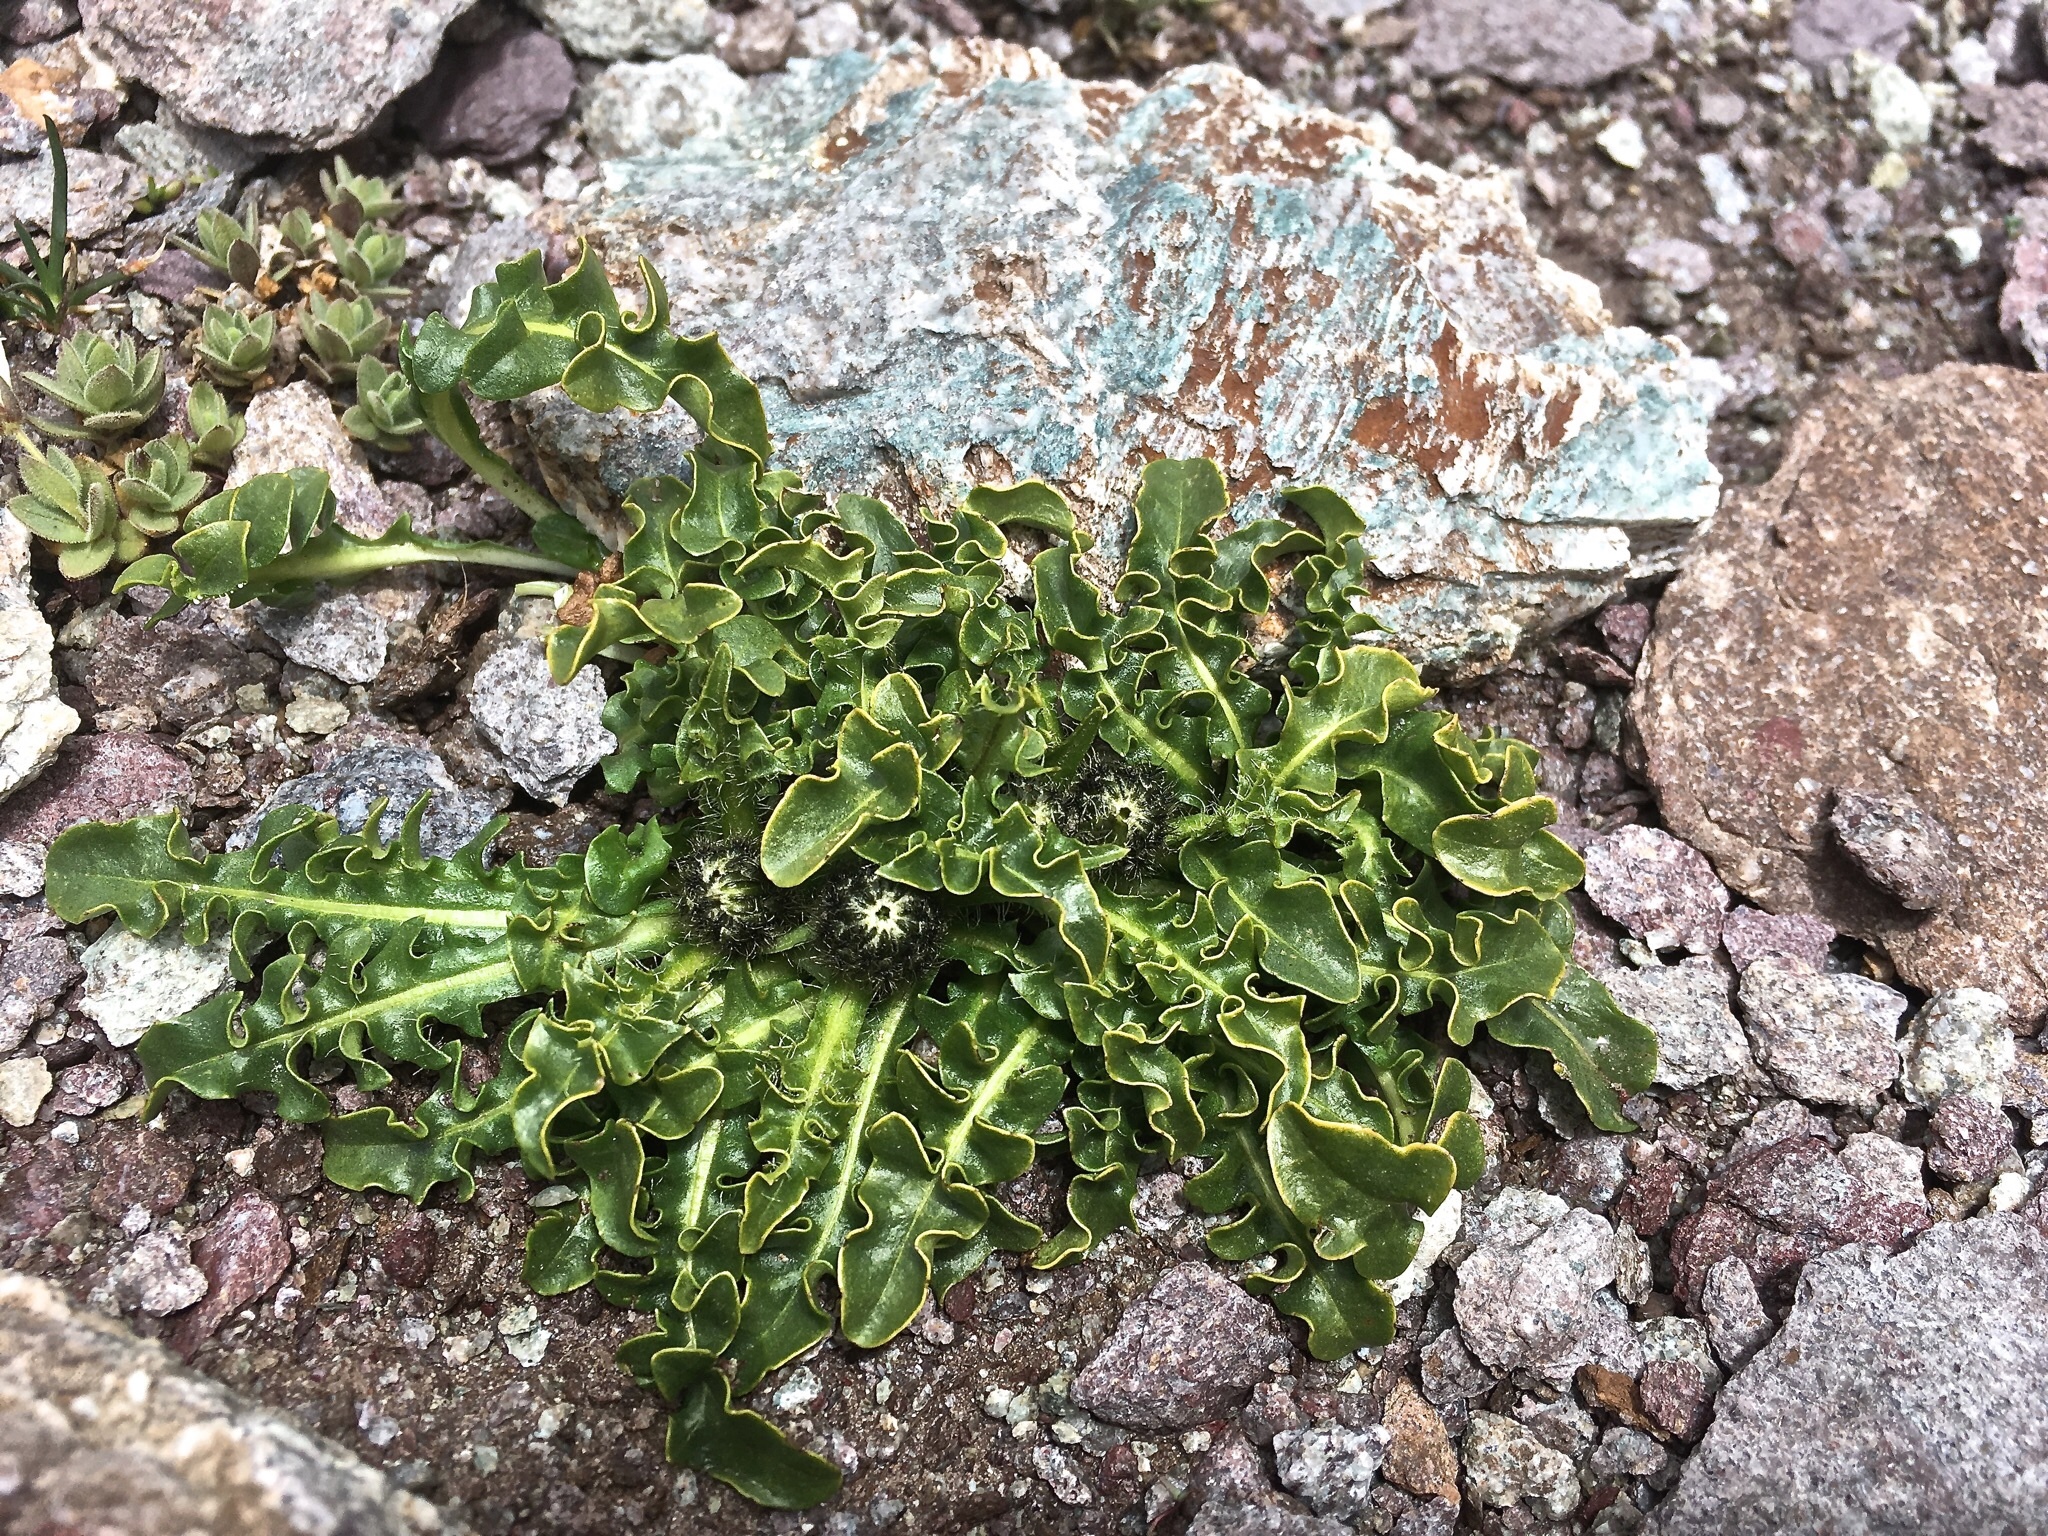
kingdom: Plantae
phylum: Tracheophyta
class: Magnoliopsida
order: Asterales
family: Asteraceae
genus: Crepis
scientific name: Crepis terglouensis
